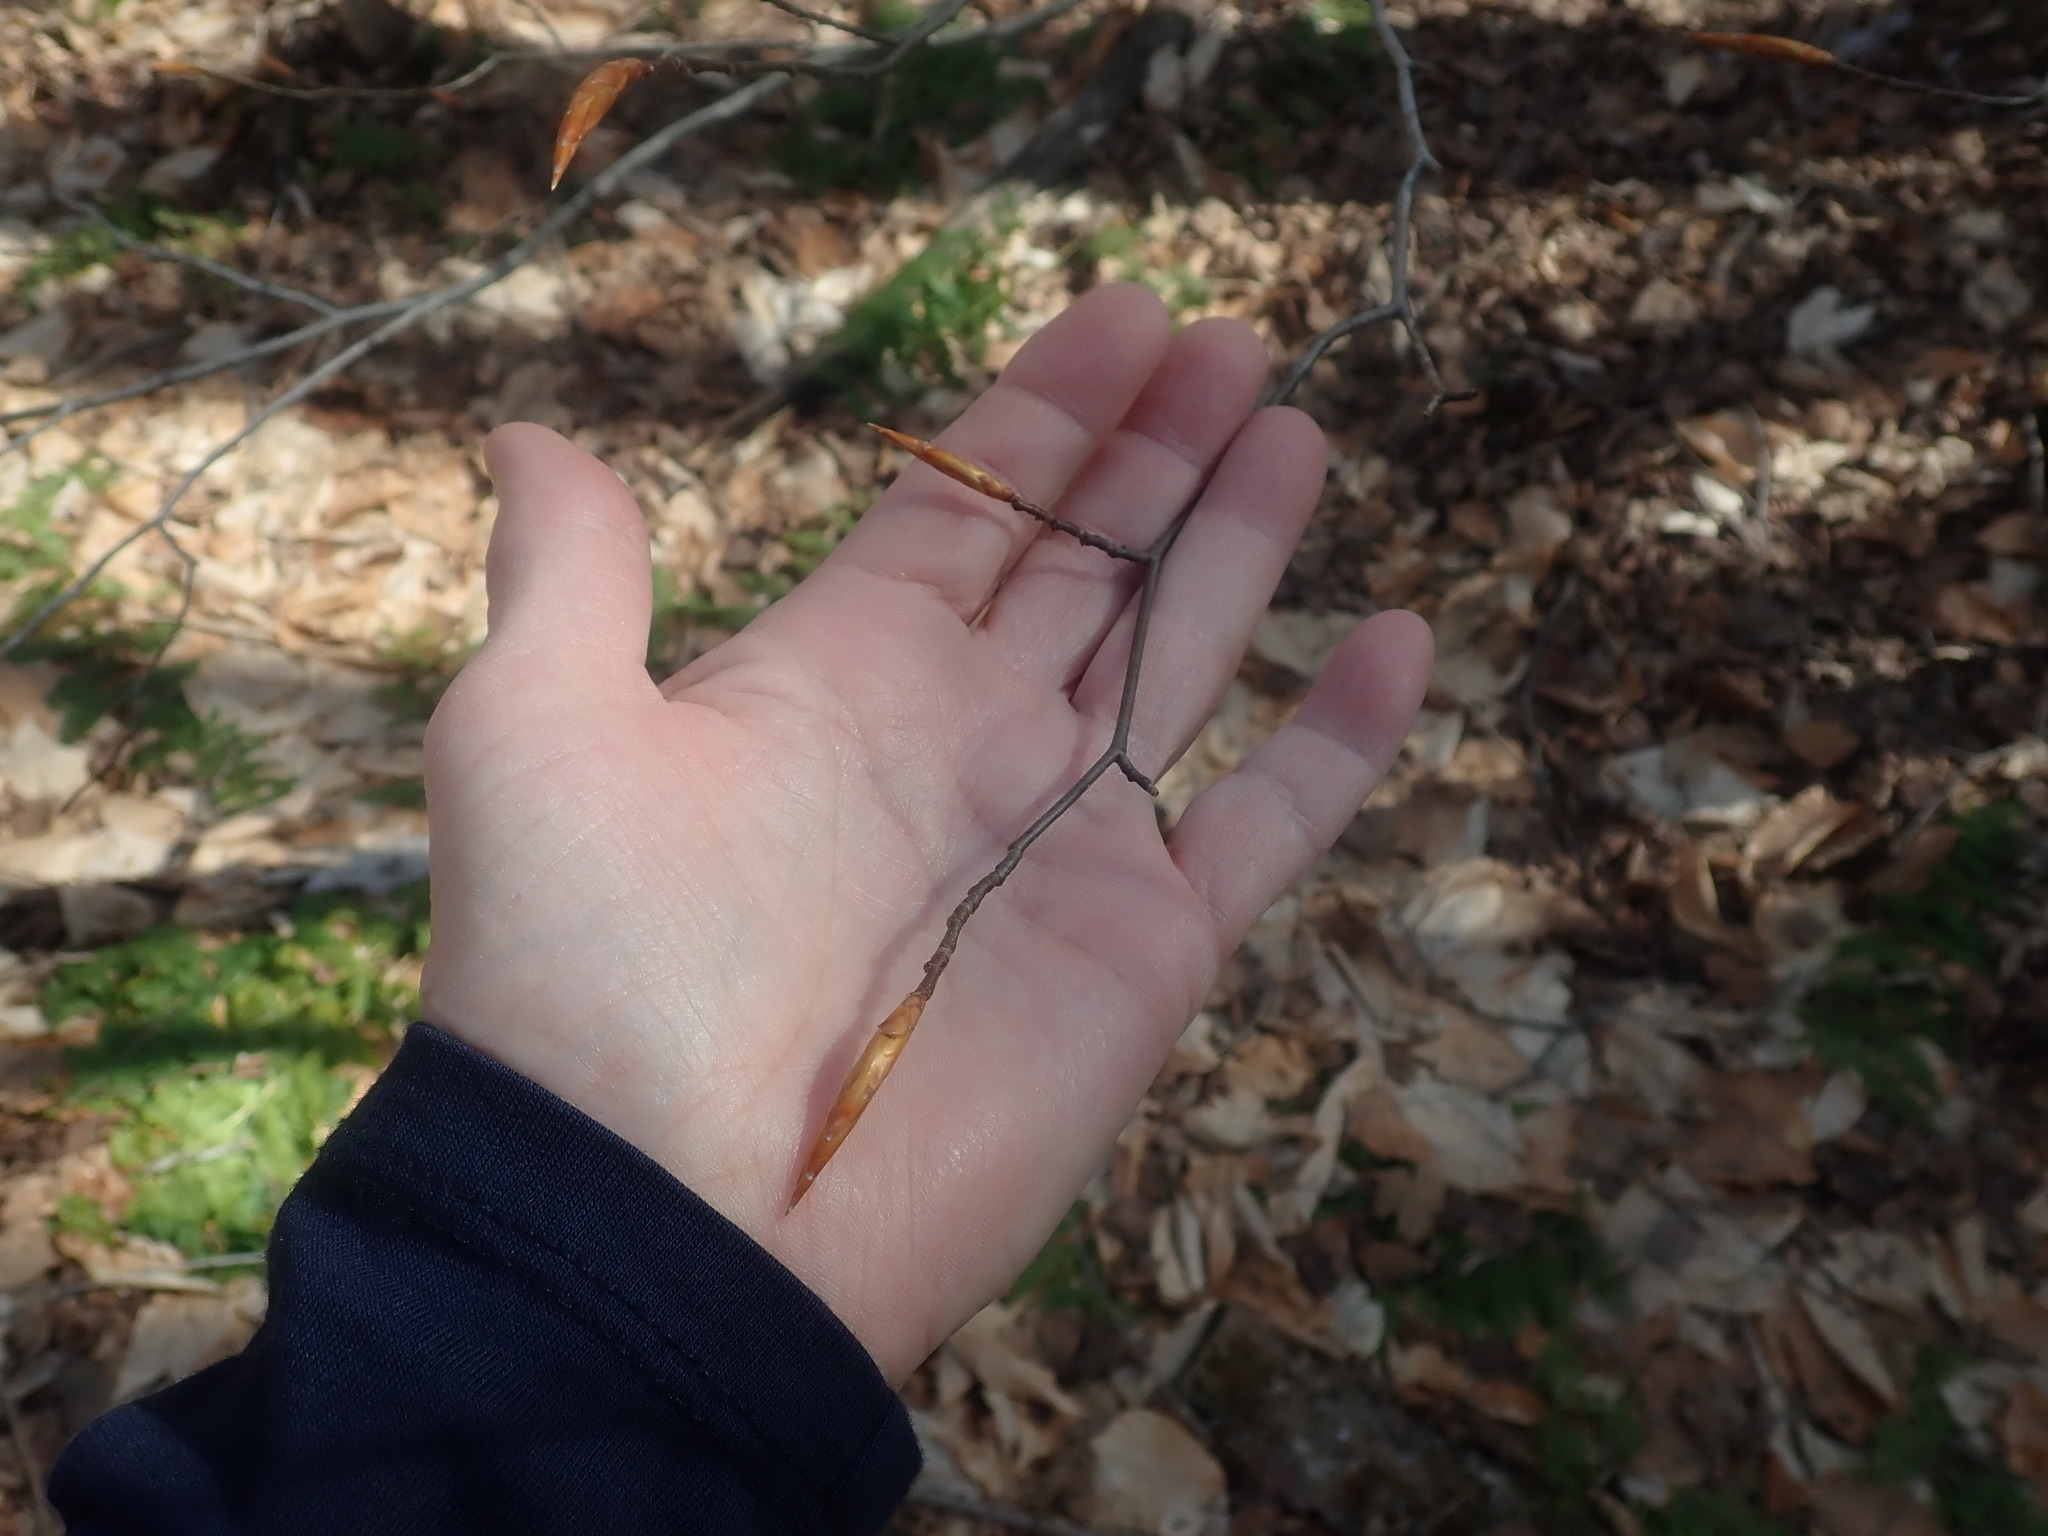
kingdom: Plantae
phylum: Tracheophyta
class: Magnoliopsida
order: Fagales
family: Fagaceae
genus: Fagus
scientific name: Fagus grandifolia
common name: American beech
